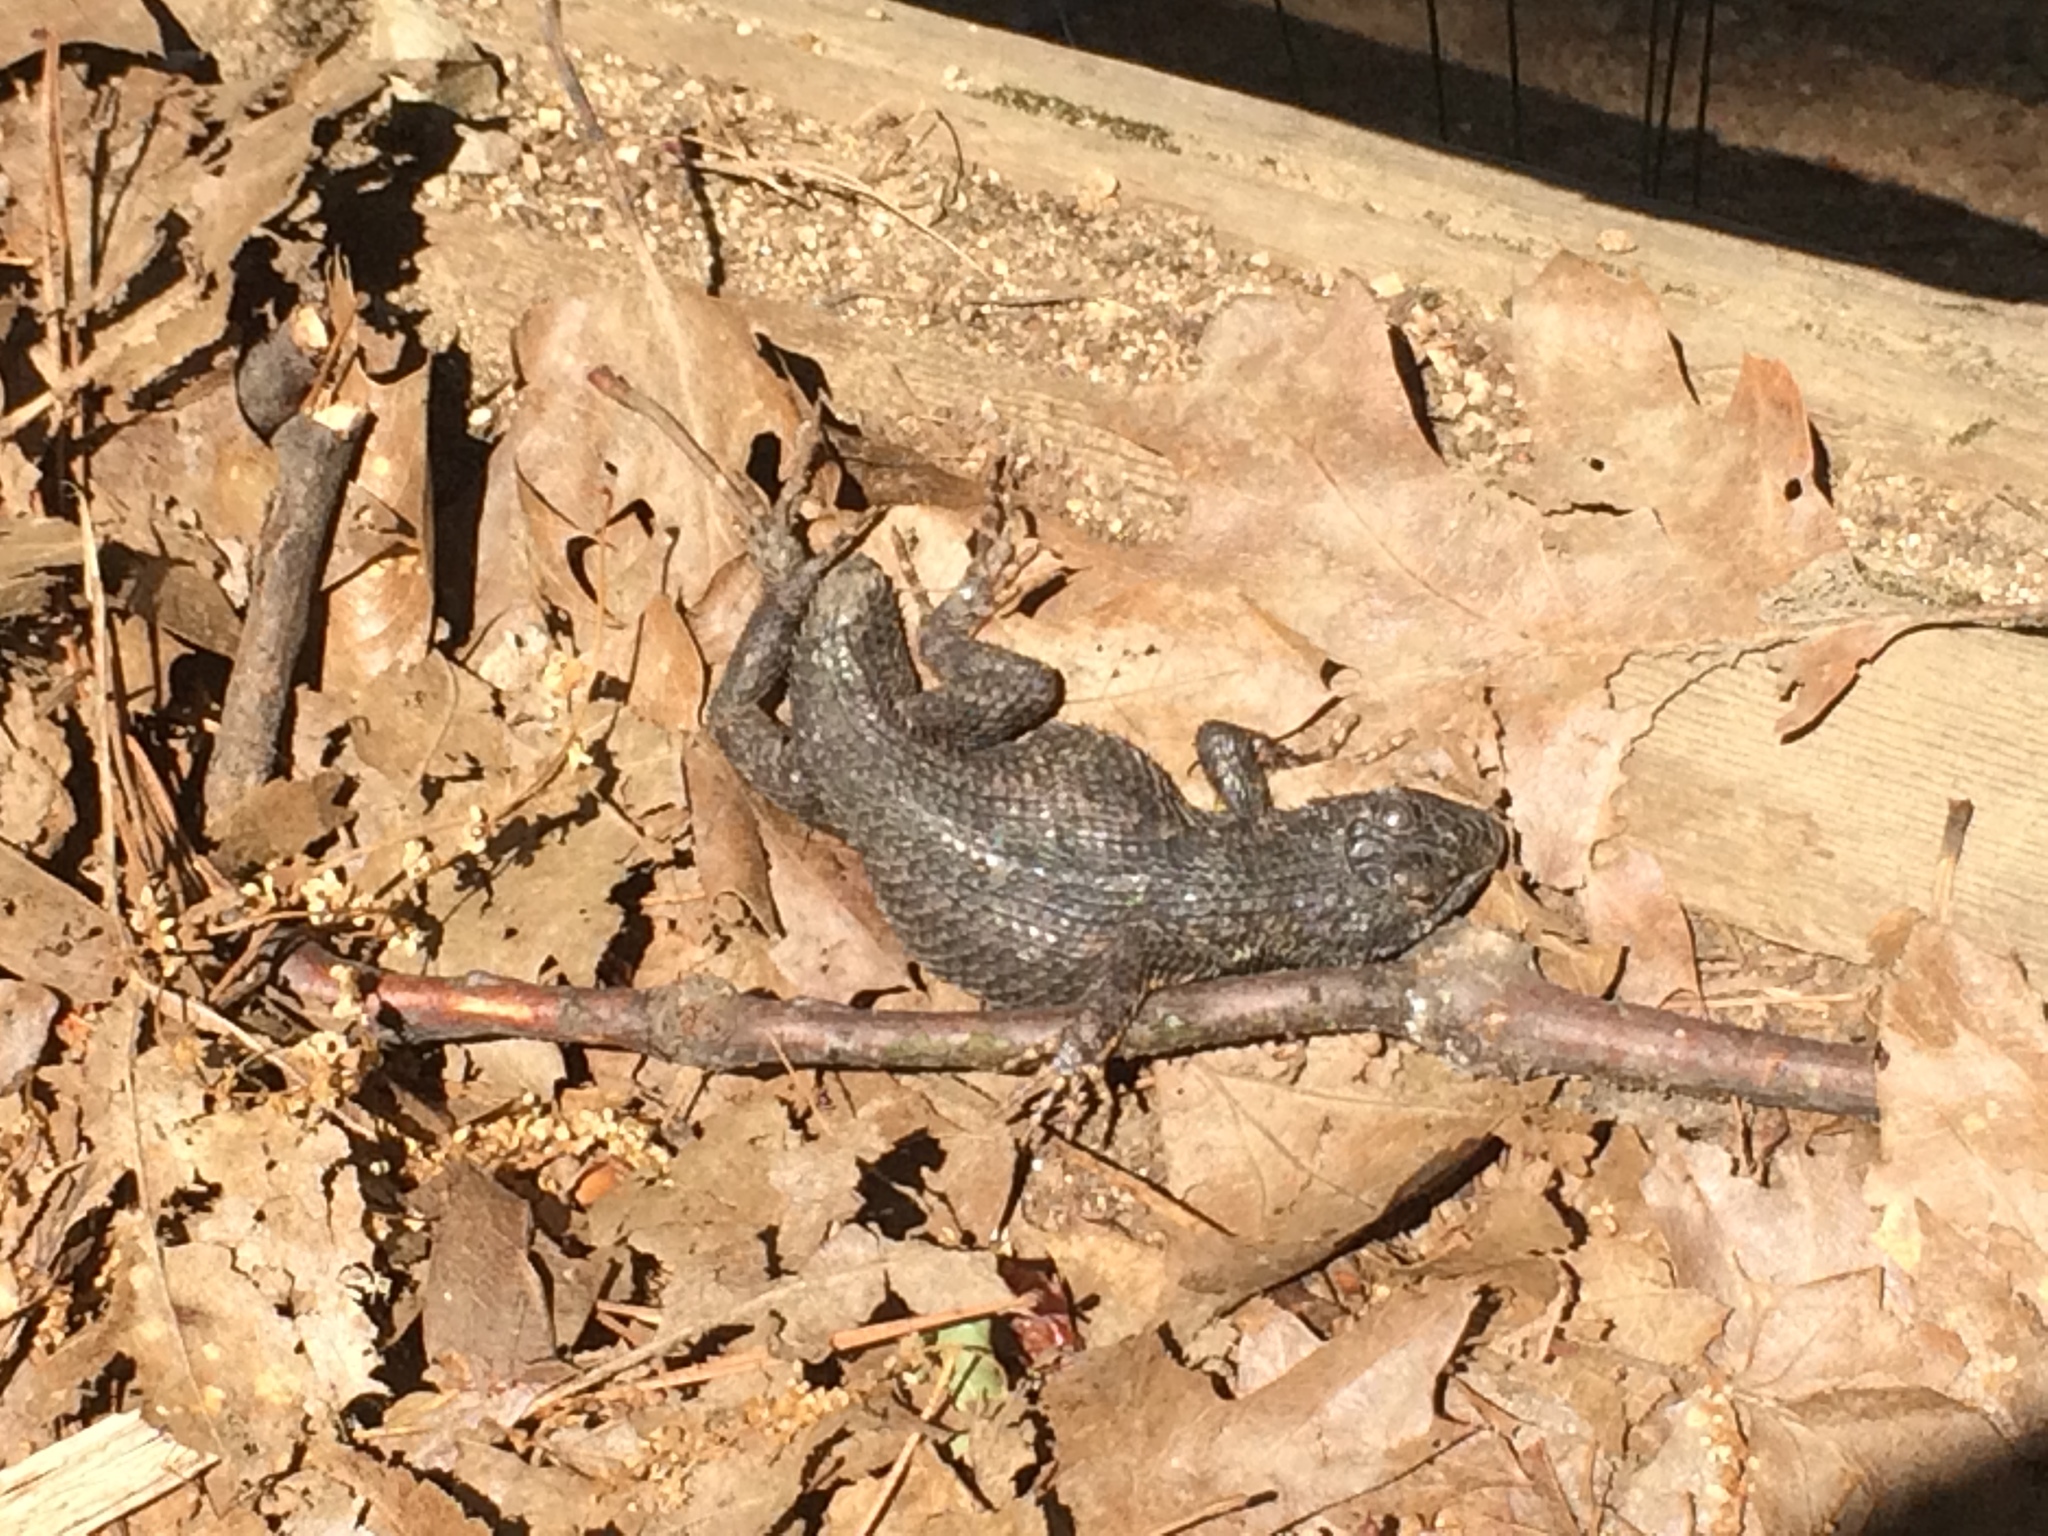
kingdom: Animalia
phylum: Chordata
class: Squamata
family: Phrynosomatidae
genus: Sceloporus
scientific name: Sceloporus occidentalis
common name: Western fence lizard
